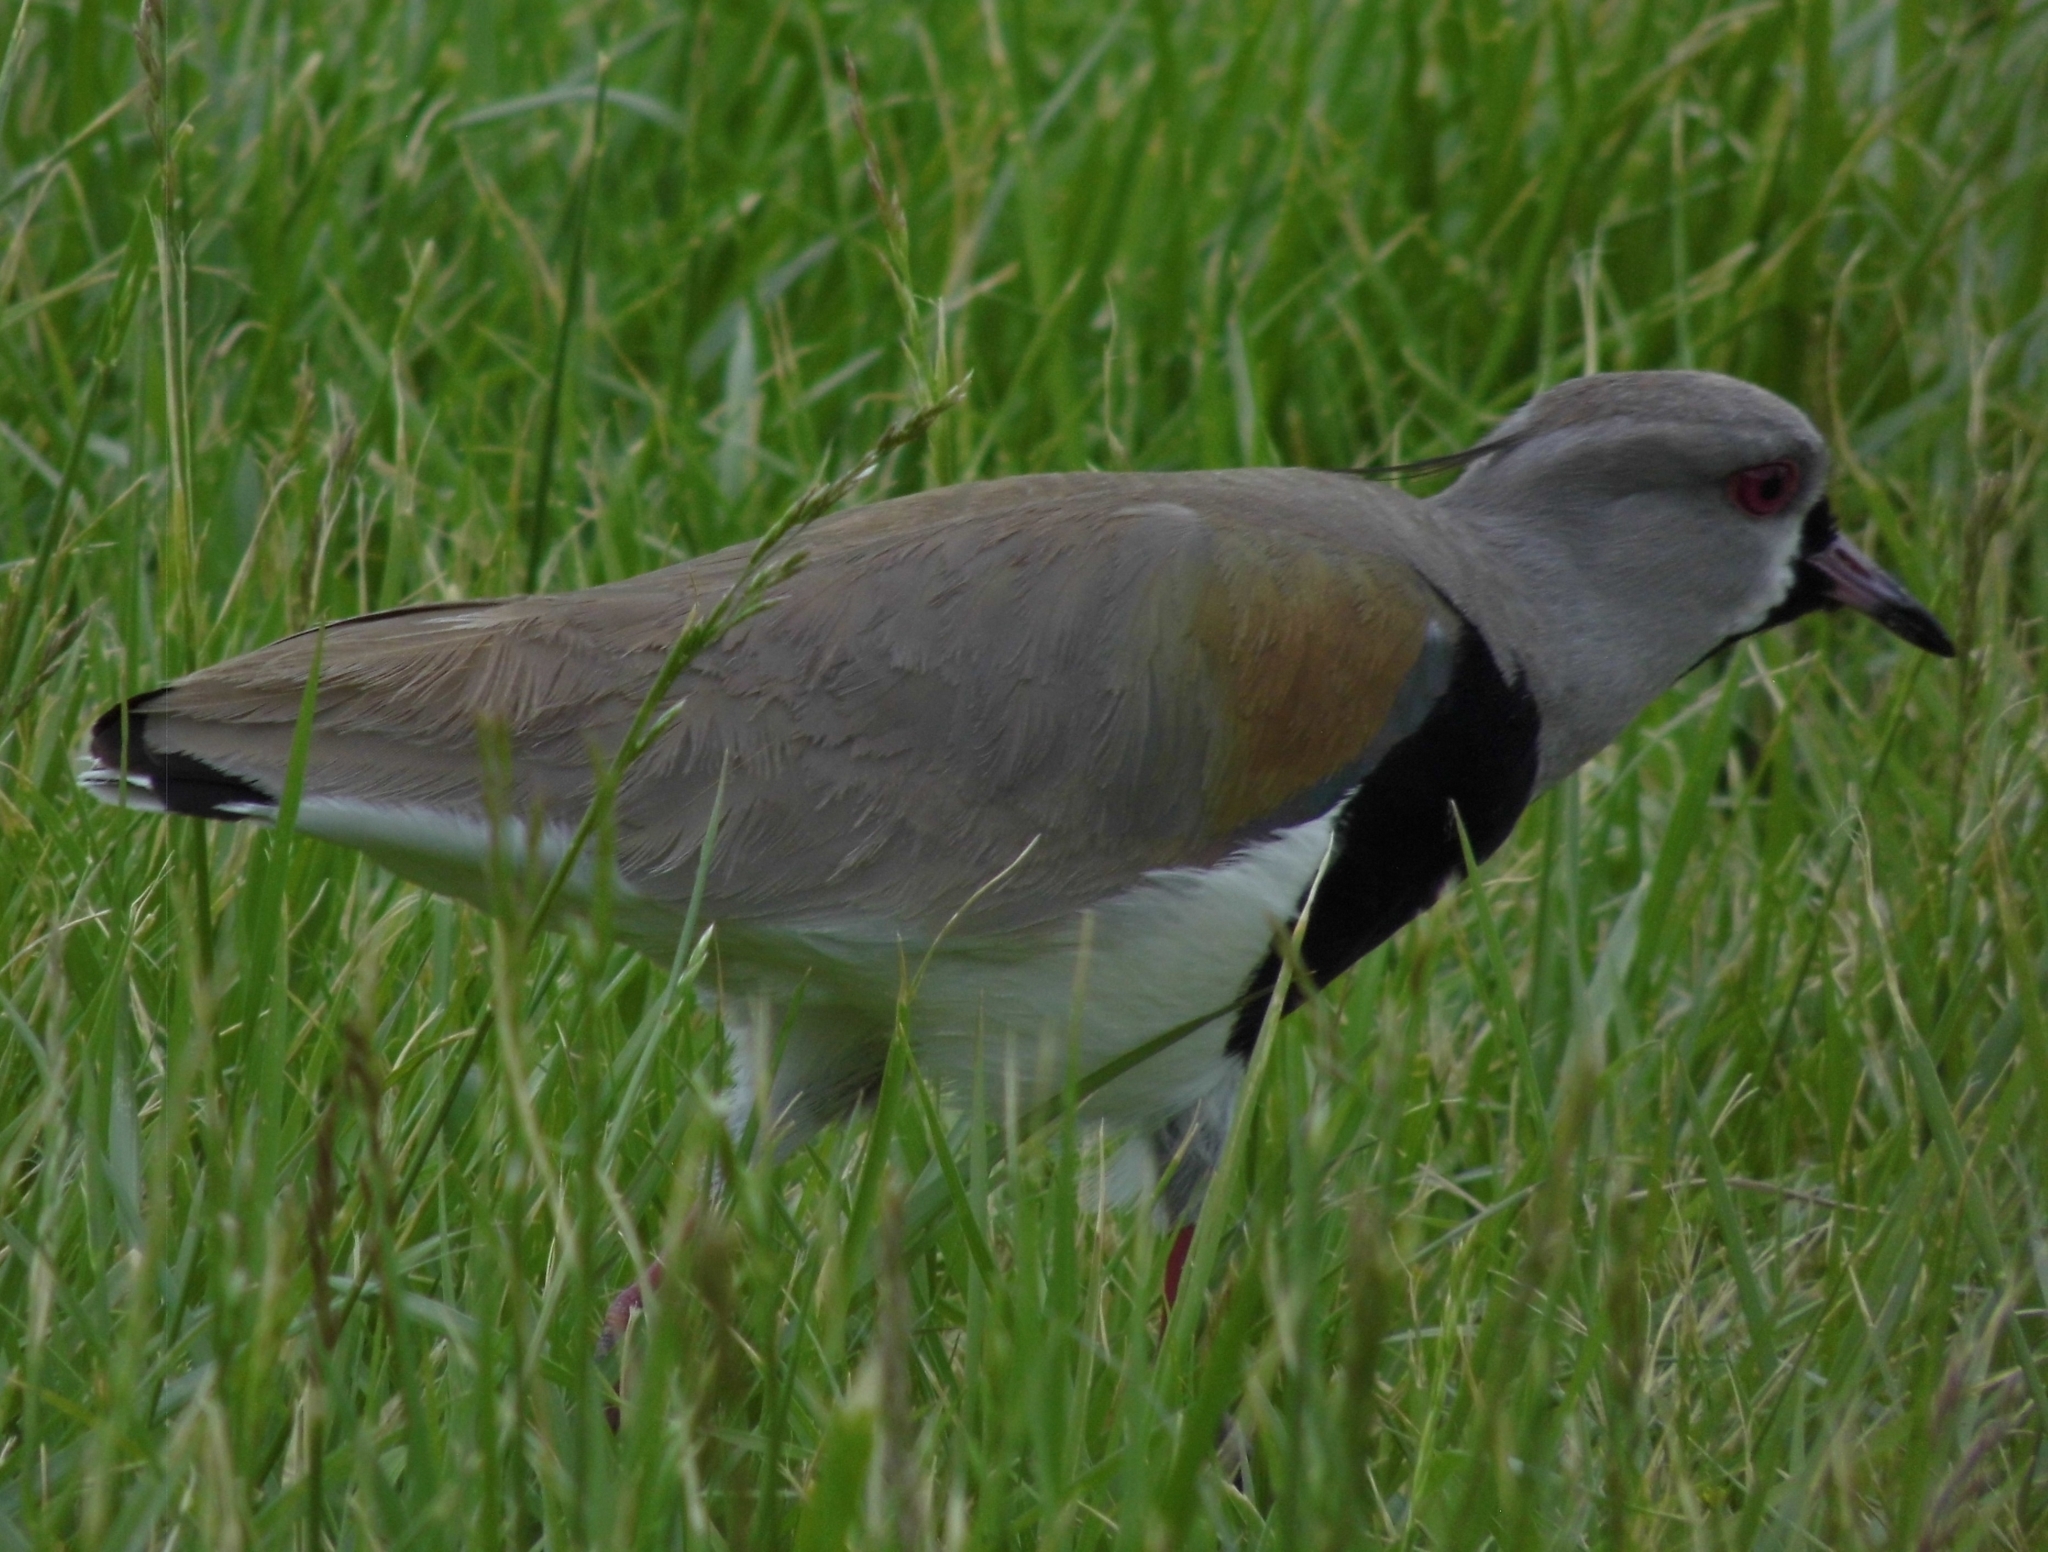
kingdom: Animalia
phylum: Chordata
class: Aves
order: Charadriiformes
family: Charadriidae
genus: Vanellus
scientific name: Vanellus chilensis
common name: Southern lapwing
